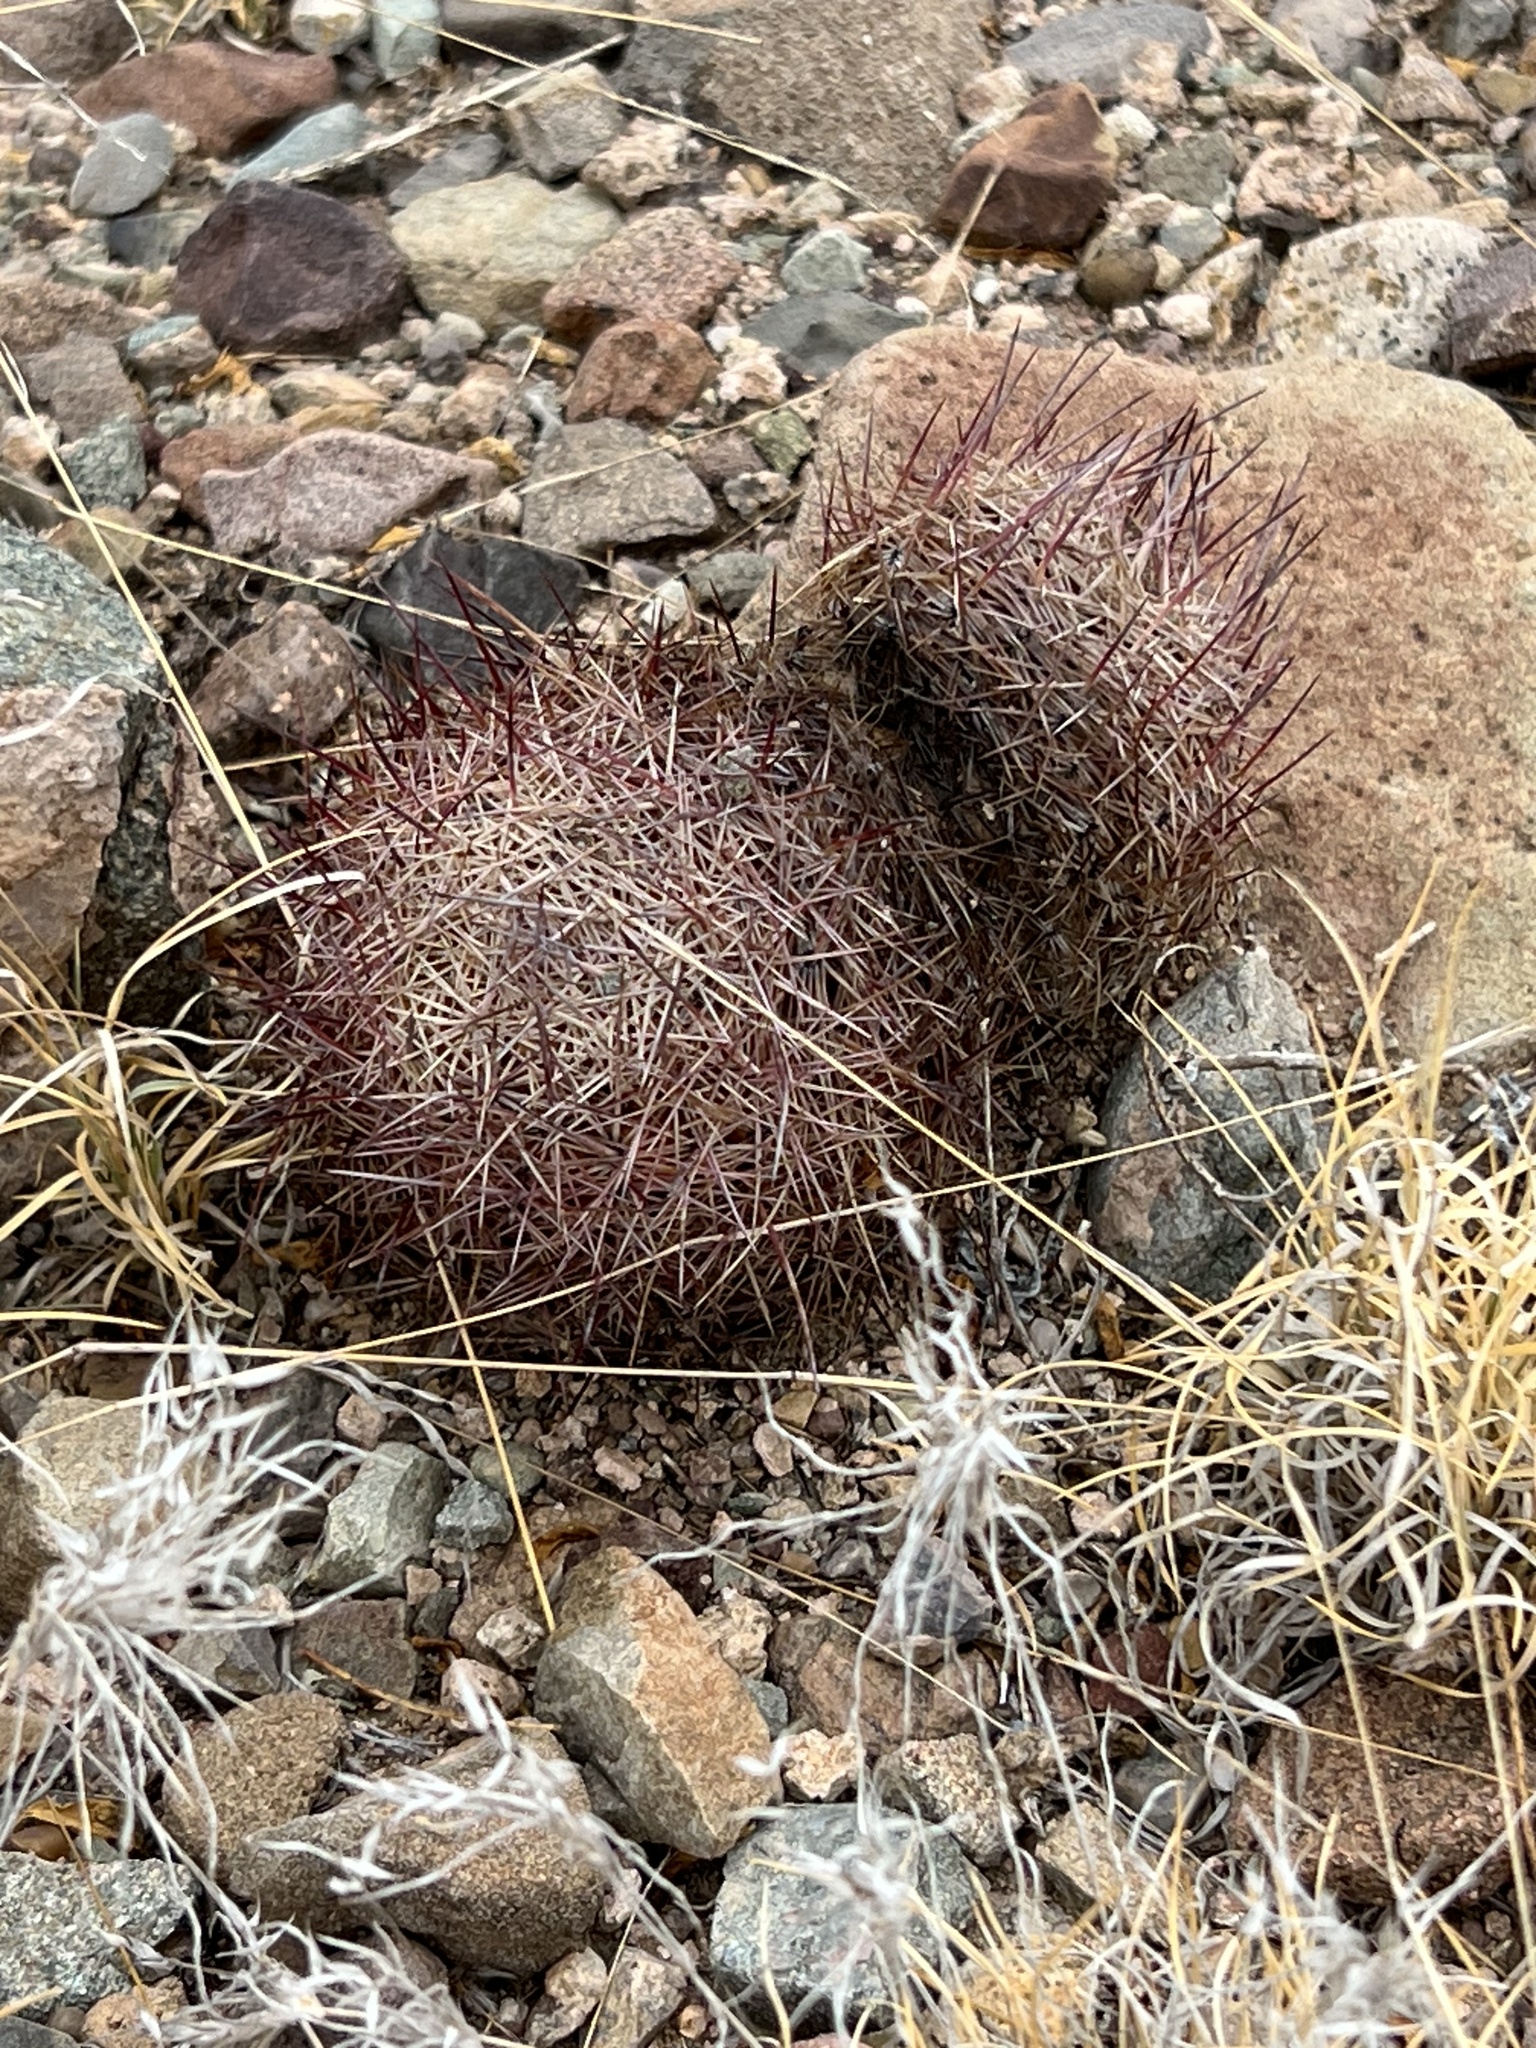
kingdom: Plantae
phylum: Tracheophyta
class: Magnoliopsida
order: Caryophyllales
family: Cactaceae
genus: Sclerocactus
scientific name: Sclerocactus johnsonii
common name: Eight-spine fishhook cactus
